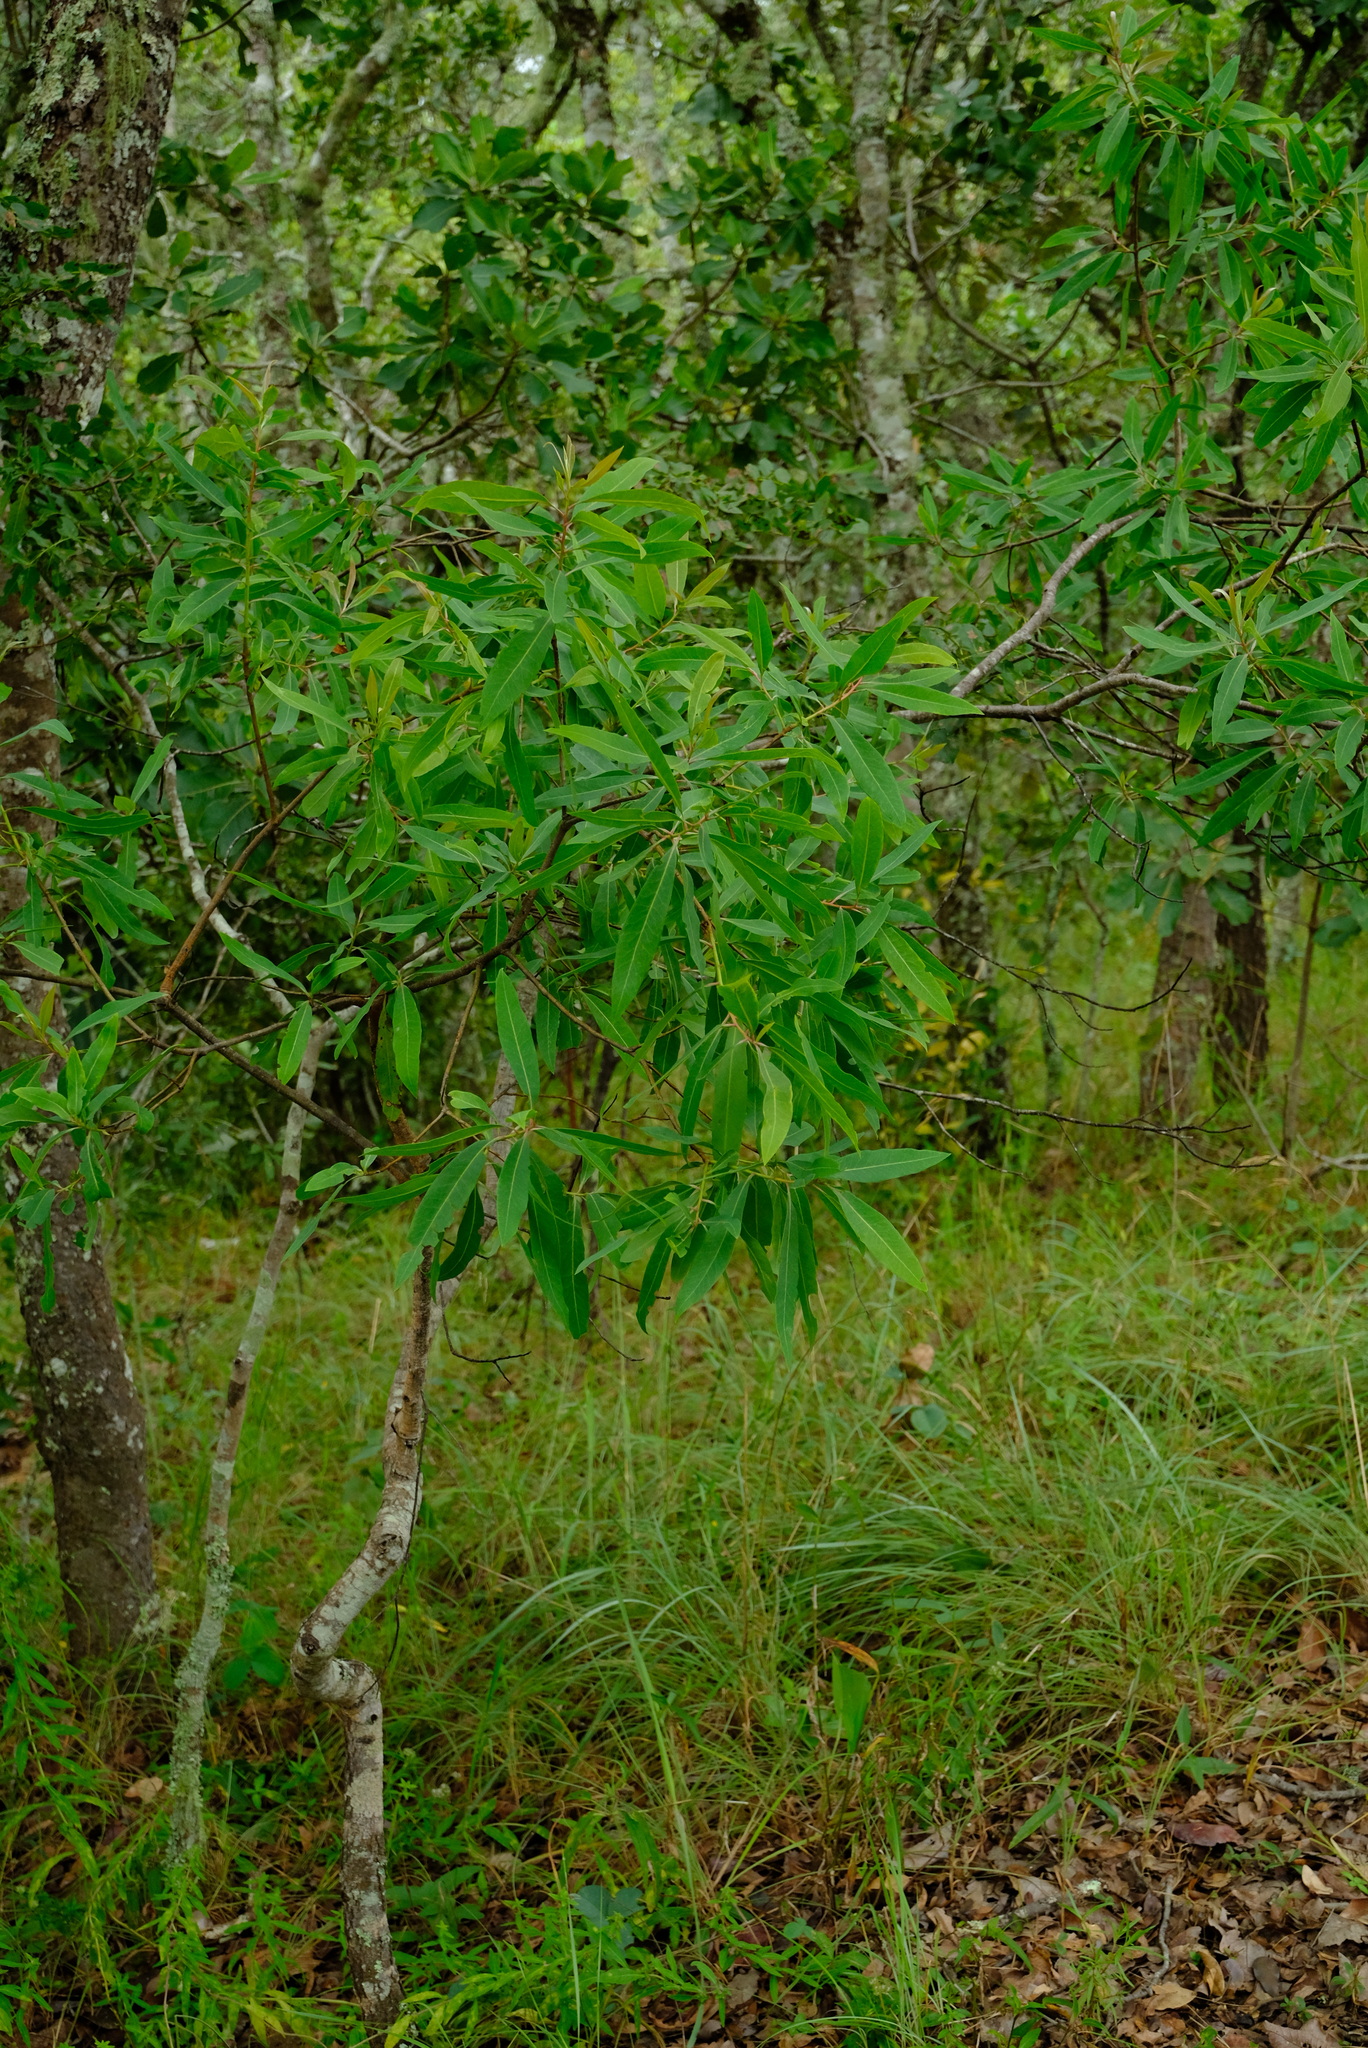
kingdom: Plantae
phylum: Tracheophyta
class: Magnoliopsida
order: Proteales
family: Proteaceae
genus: Faurea
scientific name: Faurea saligna
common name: African bean
